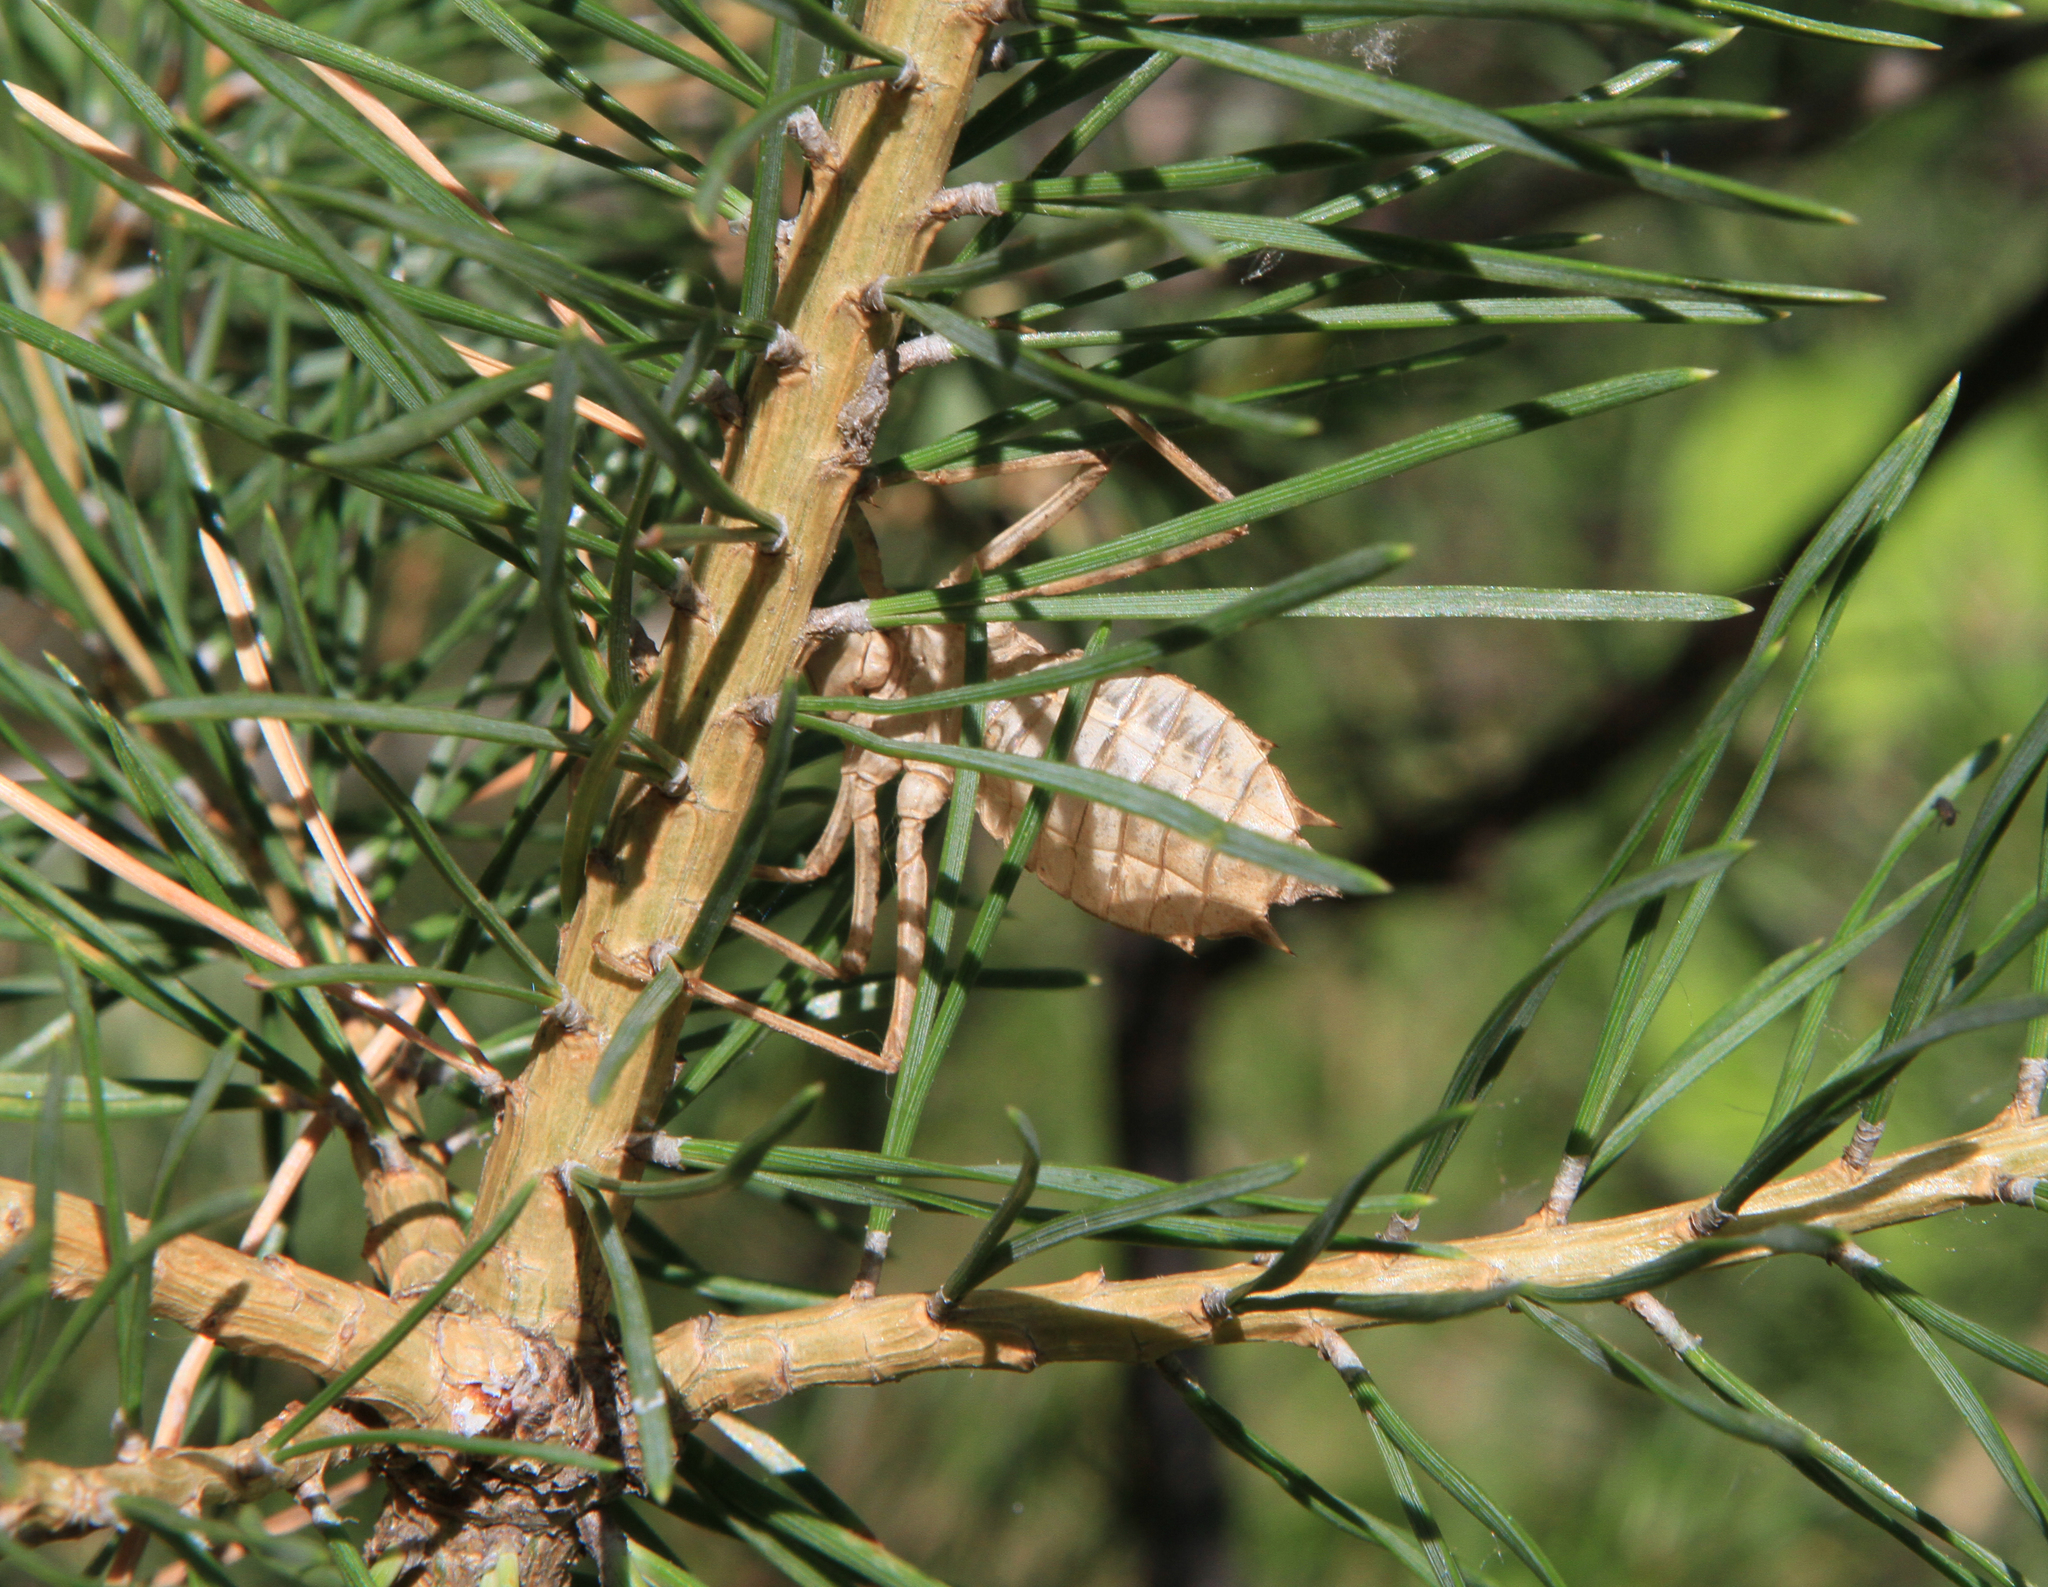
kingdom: Animalia
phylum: Arthropoda
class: Insecta
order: Odonata
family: Corduliidae
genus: Epitheca
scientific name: Epitheca bimaculata
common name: Eurasian baskettail
